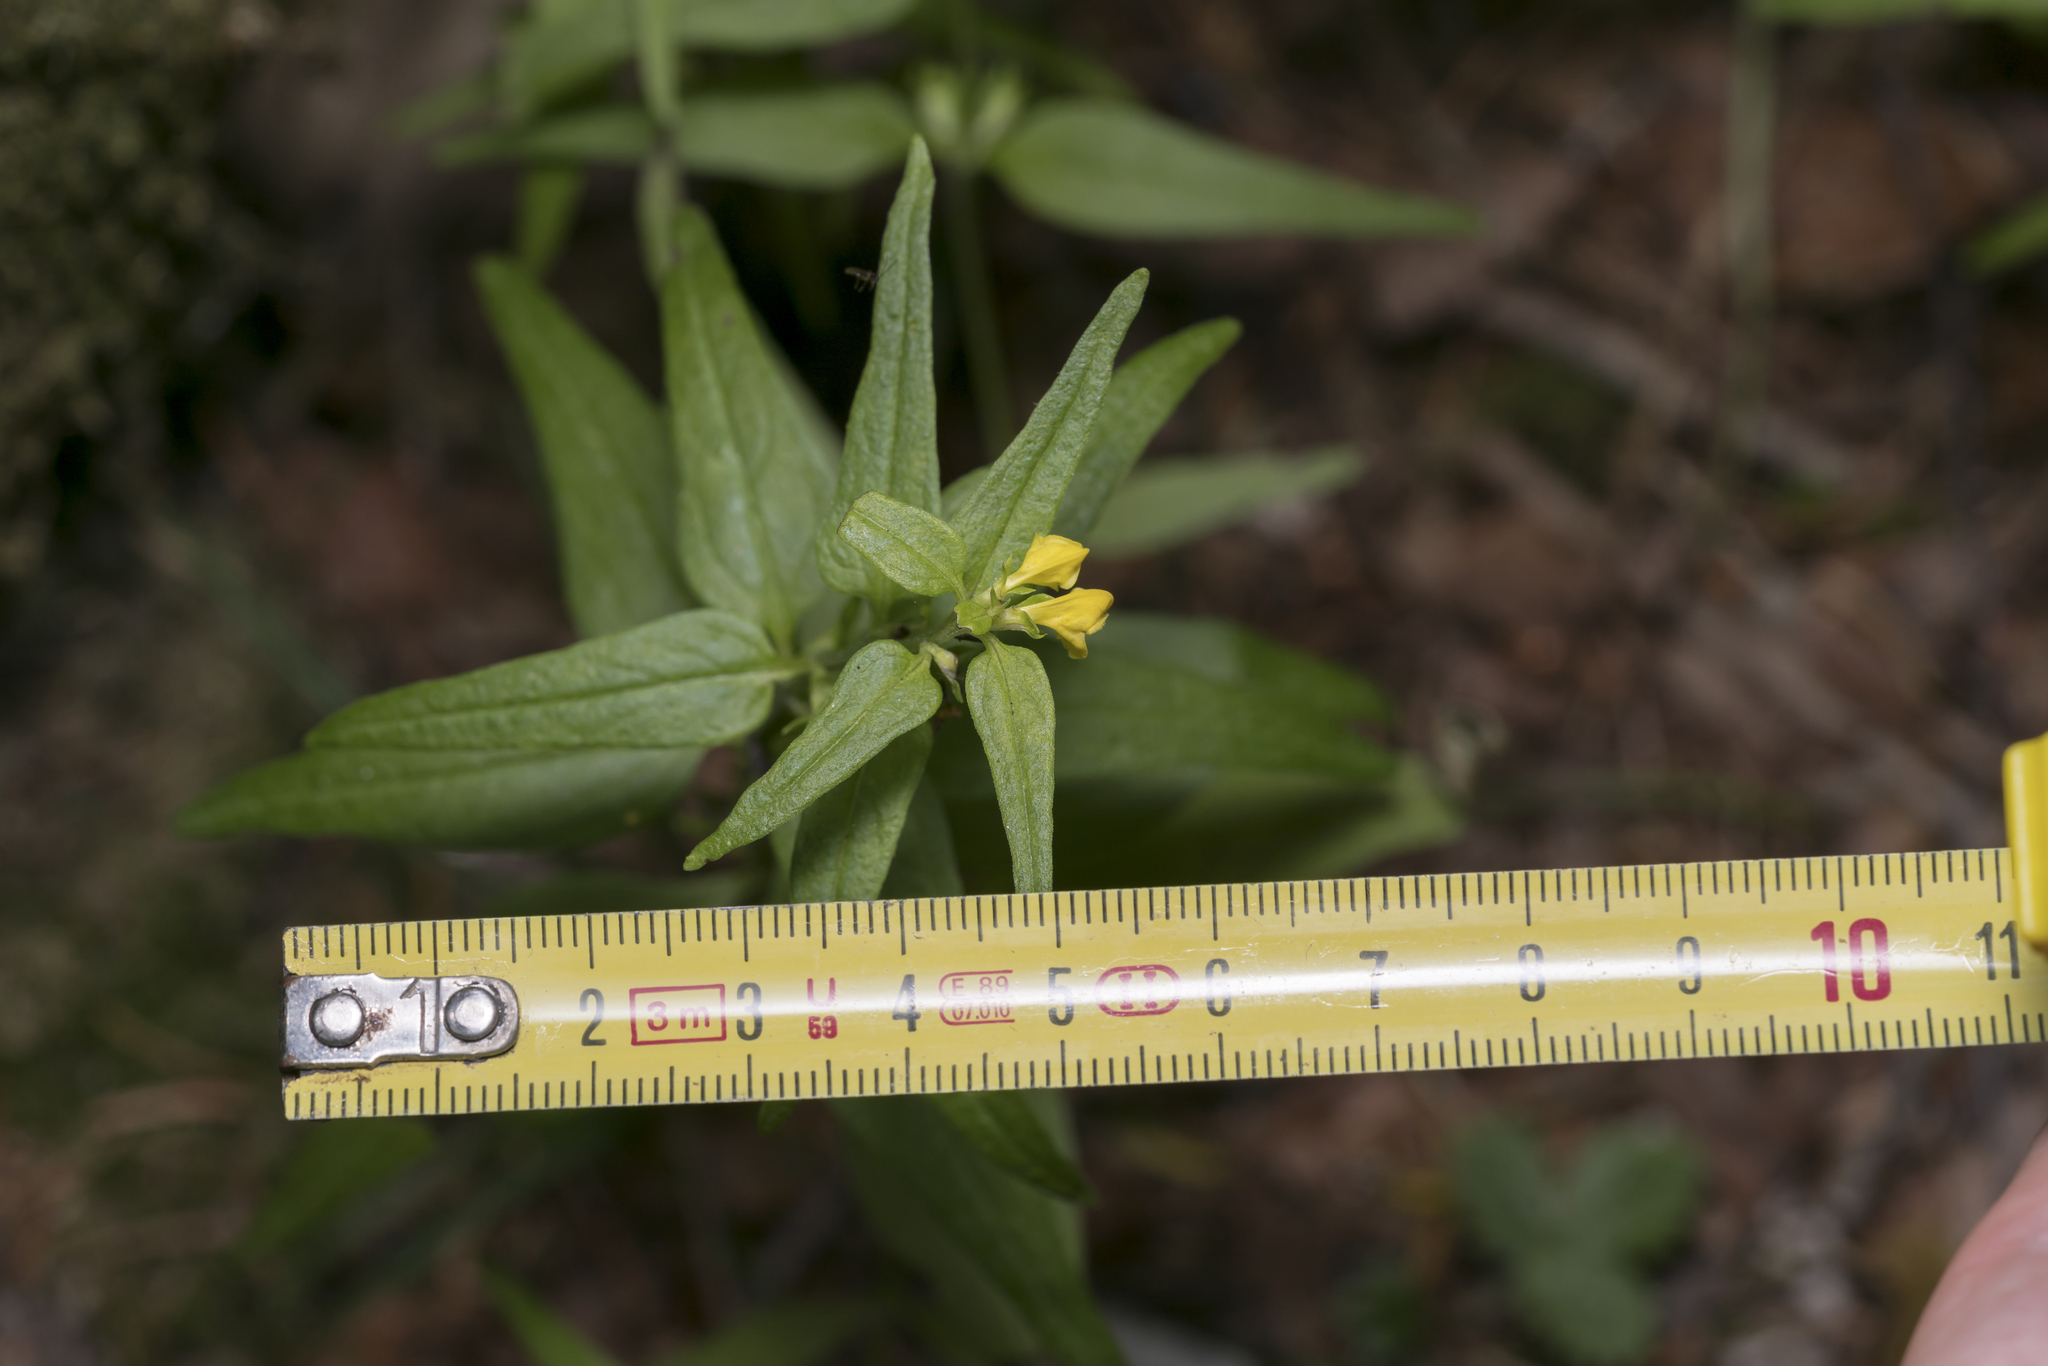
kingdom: Plantae
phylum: Tracheophyta
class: Magnoliopsida
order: Lamiales
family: Orobanchaceae
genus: Melampyrum
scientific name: Melampyrum sylvaticum
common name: Small cow-wheat
